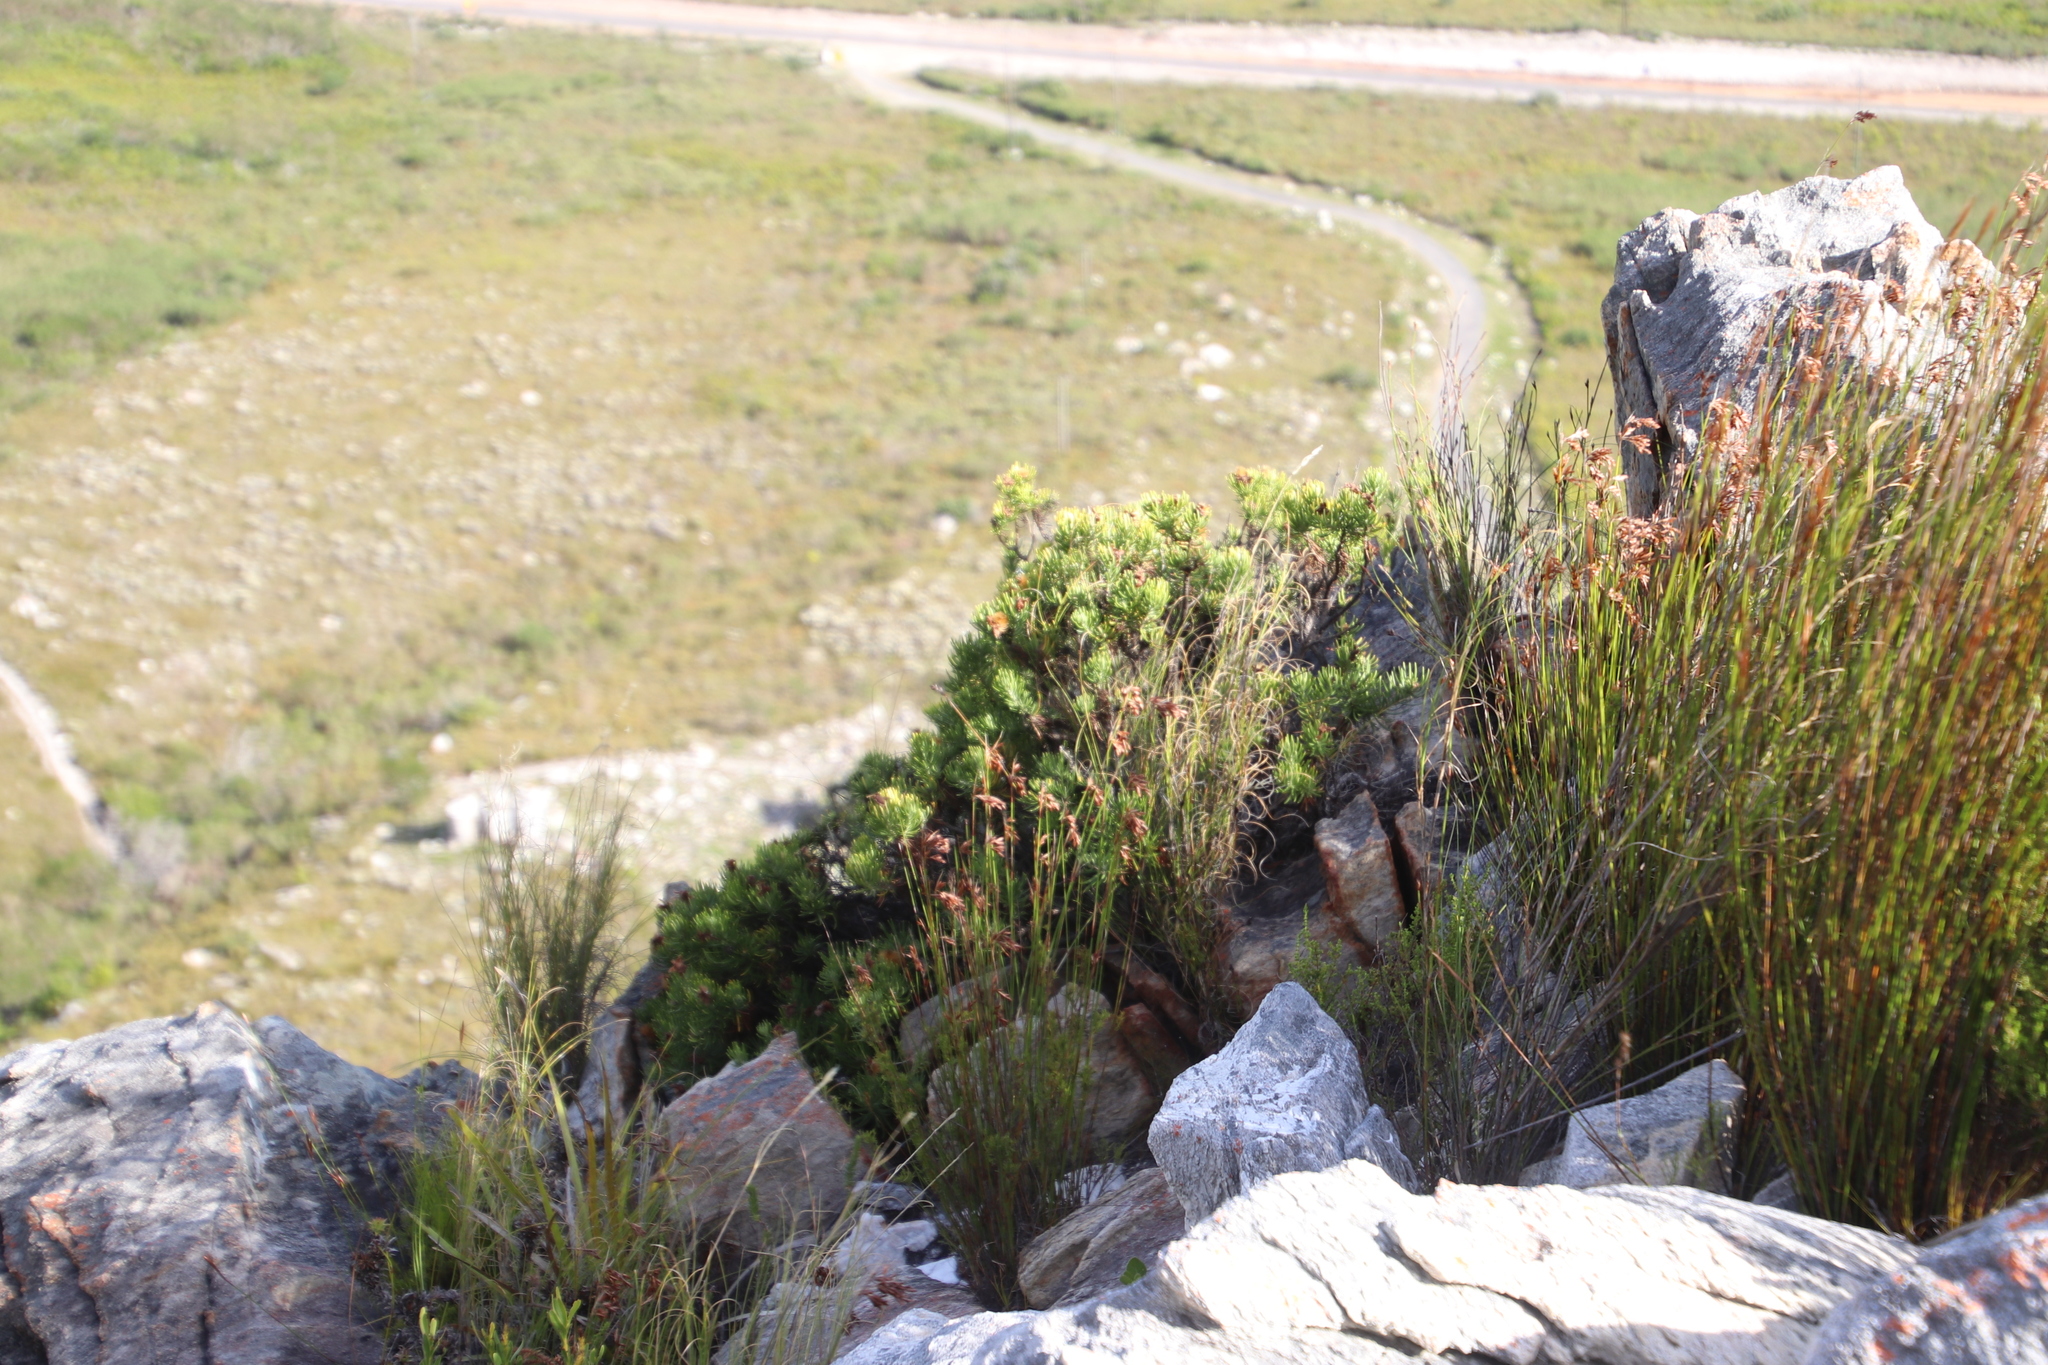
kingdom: Plantae
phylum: Tracheophyta
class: Magnoliopsida
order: Asterales
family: Asteraceae
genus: Heterolepis
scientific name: Heterolepis aliena
